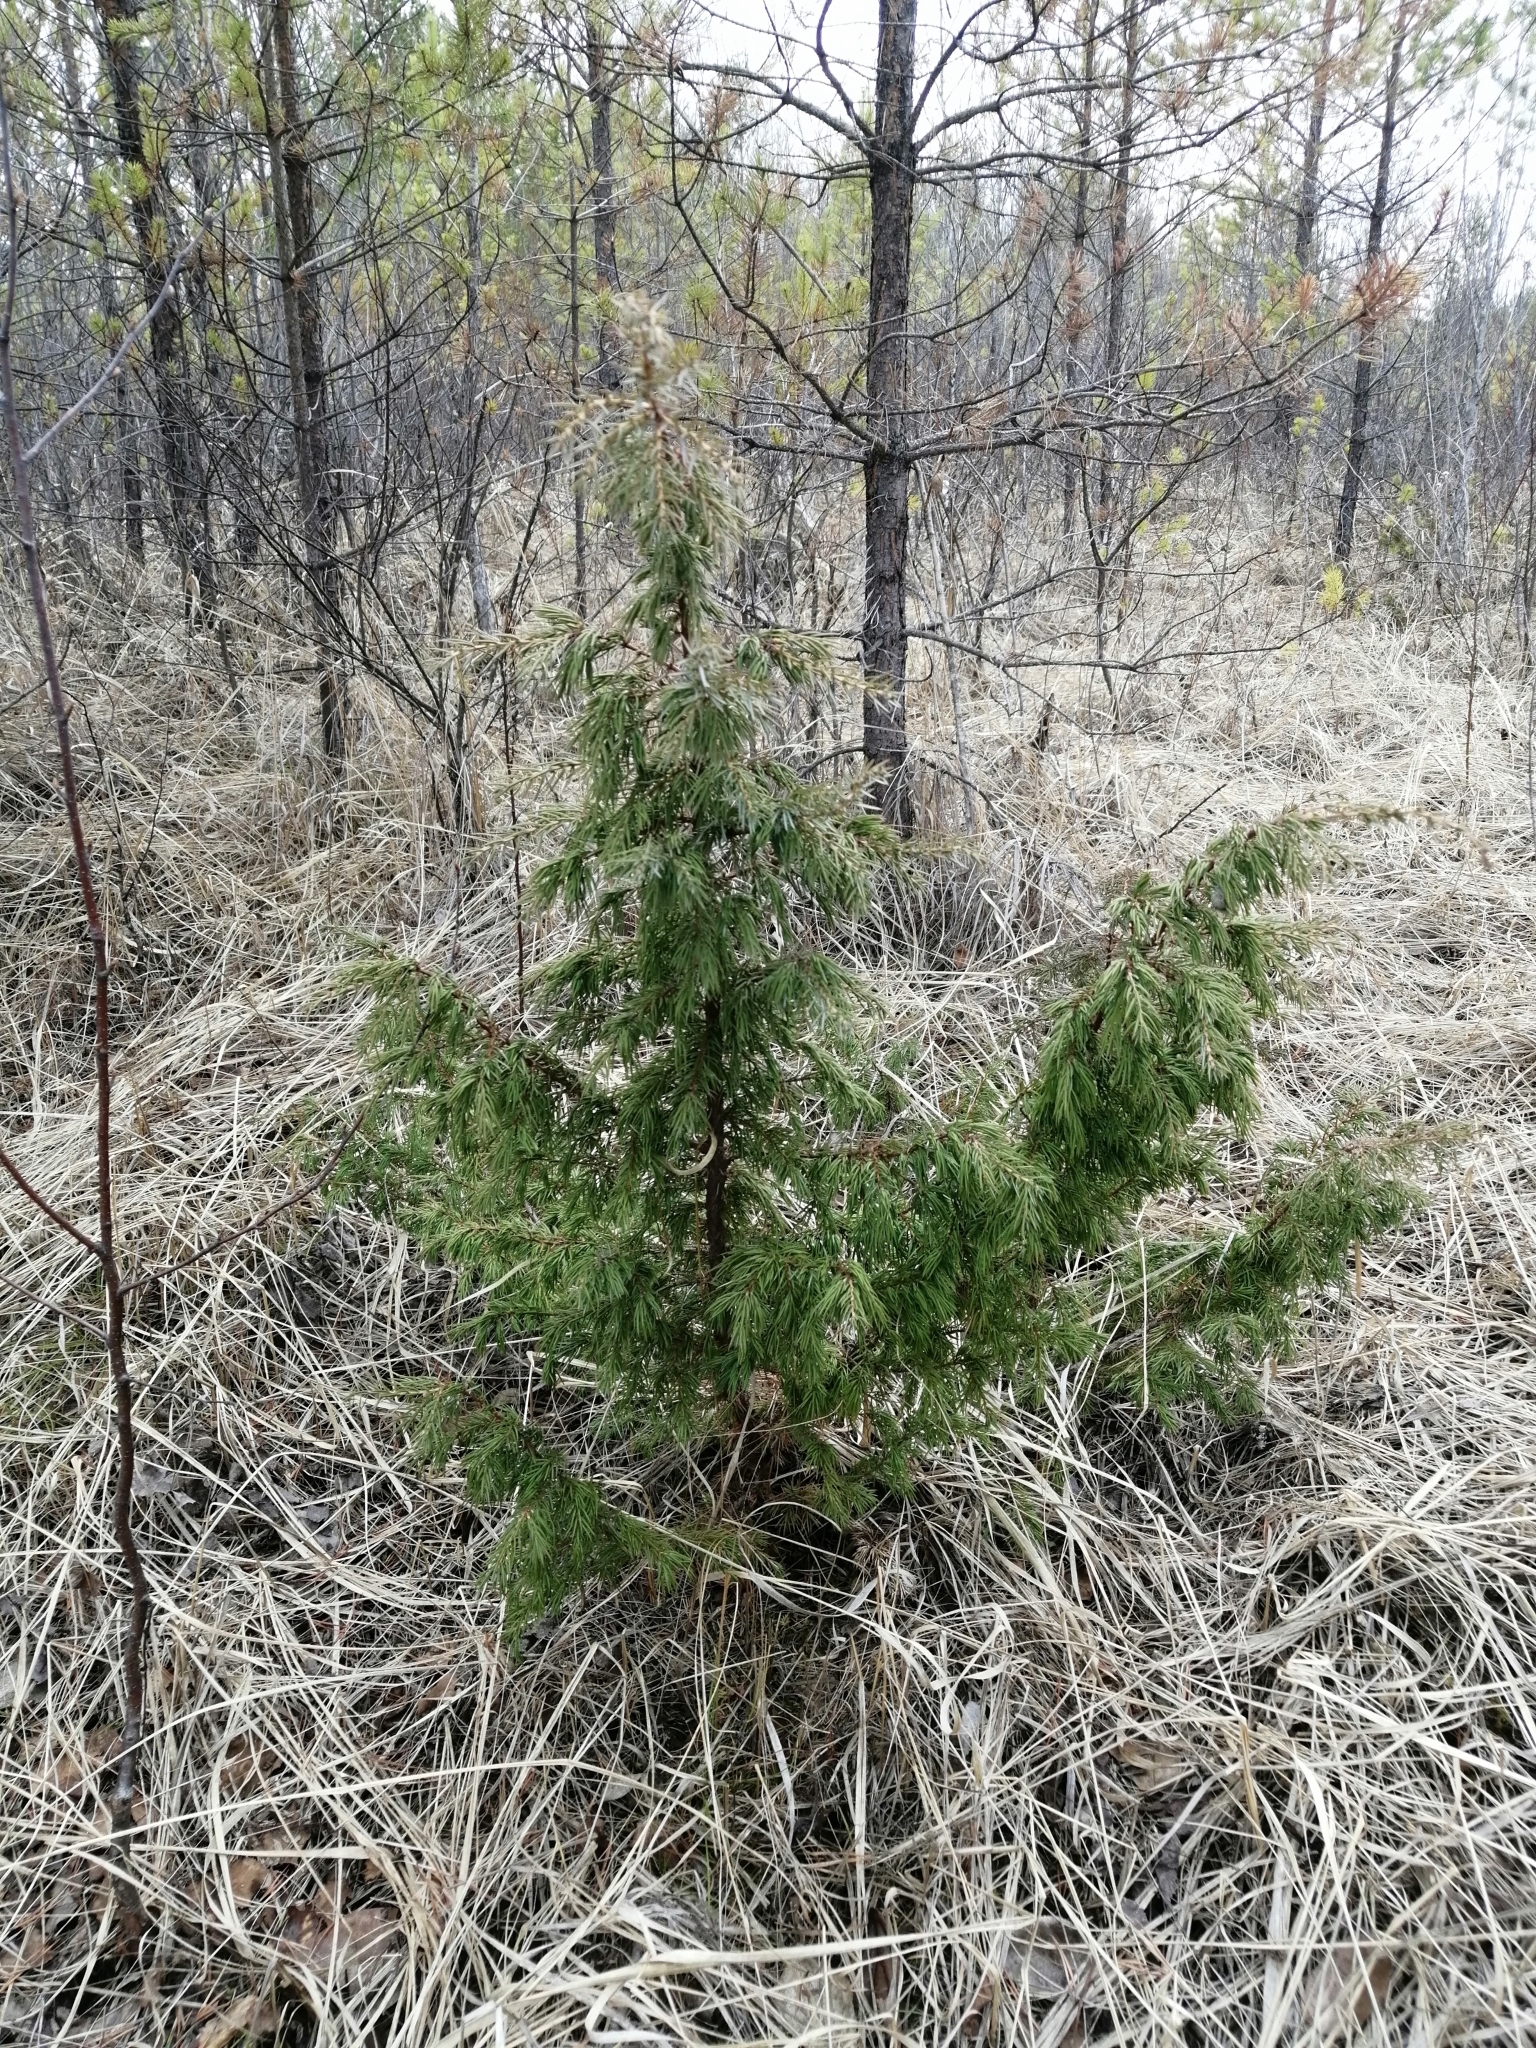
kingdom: Plantae
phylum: Tracheophyta
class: Pinopsida
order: Pinales
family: Cupressaceae
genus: Juniperus
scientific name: Juniperus communis
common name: Common juniper
